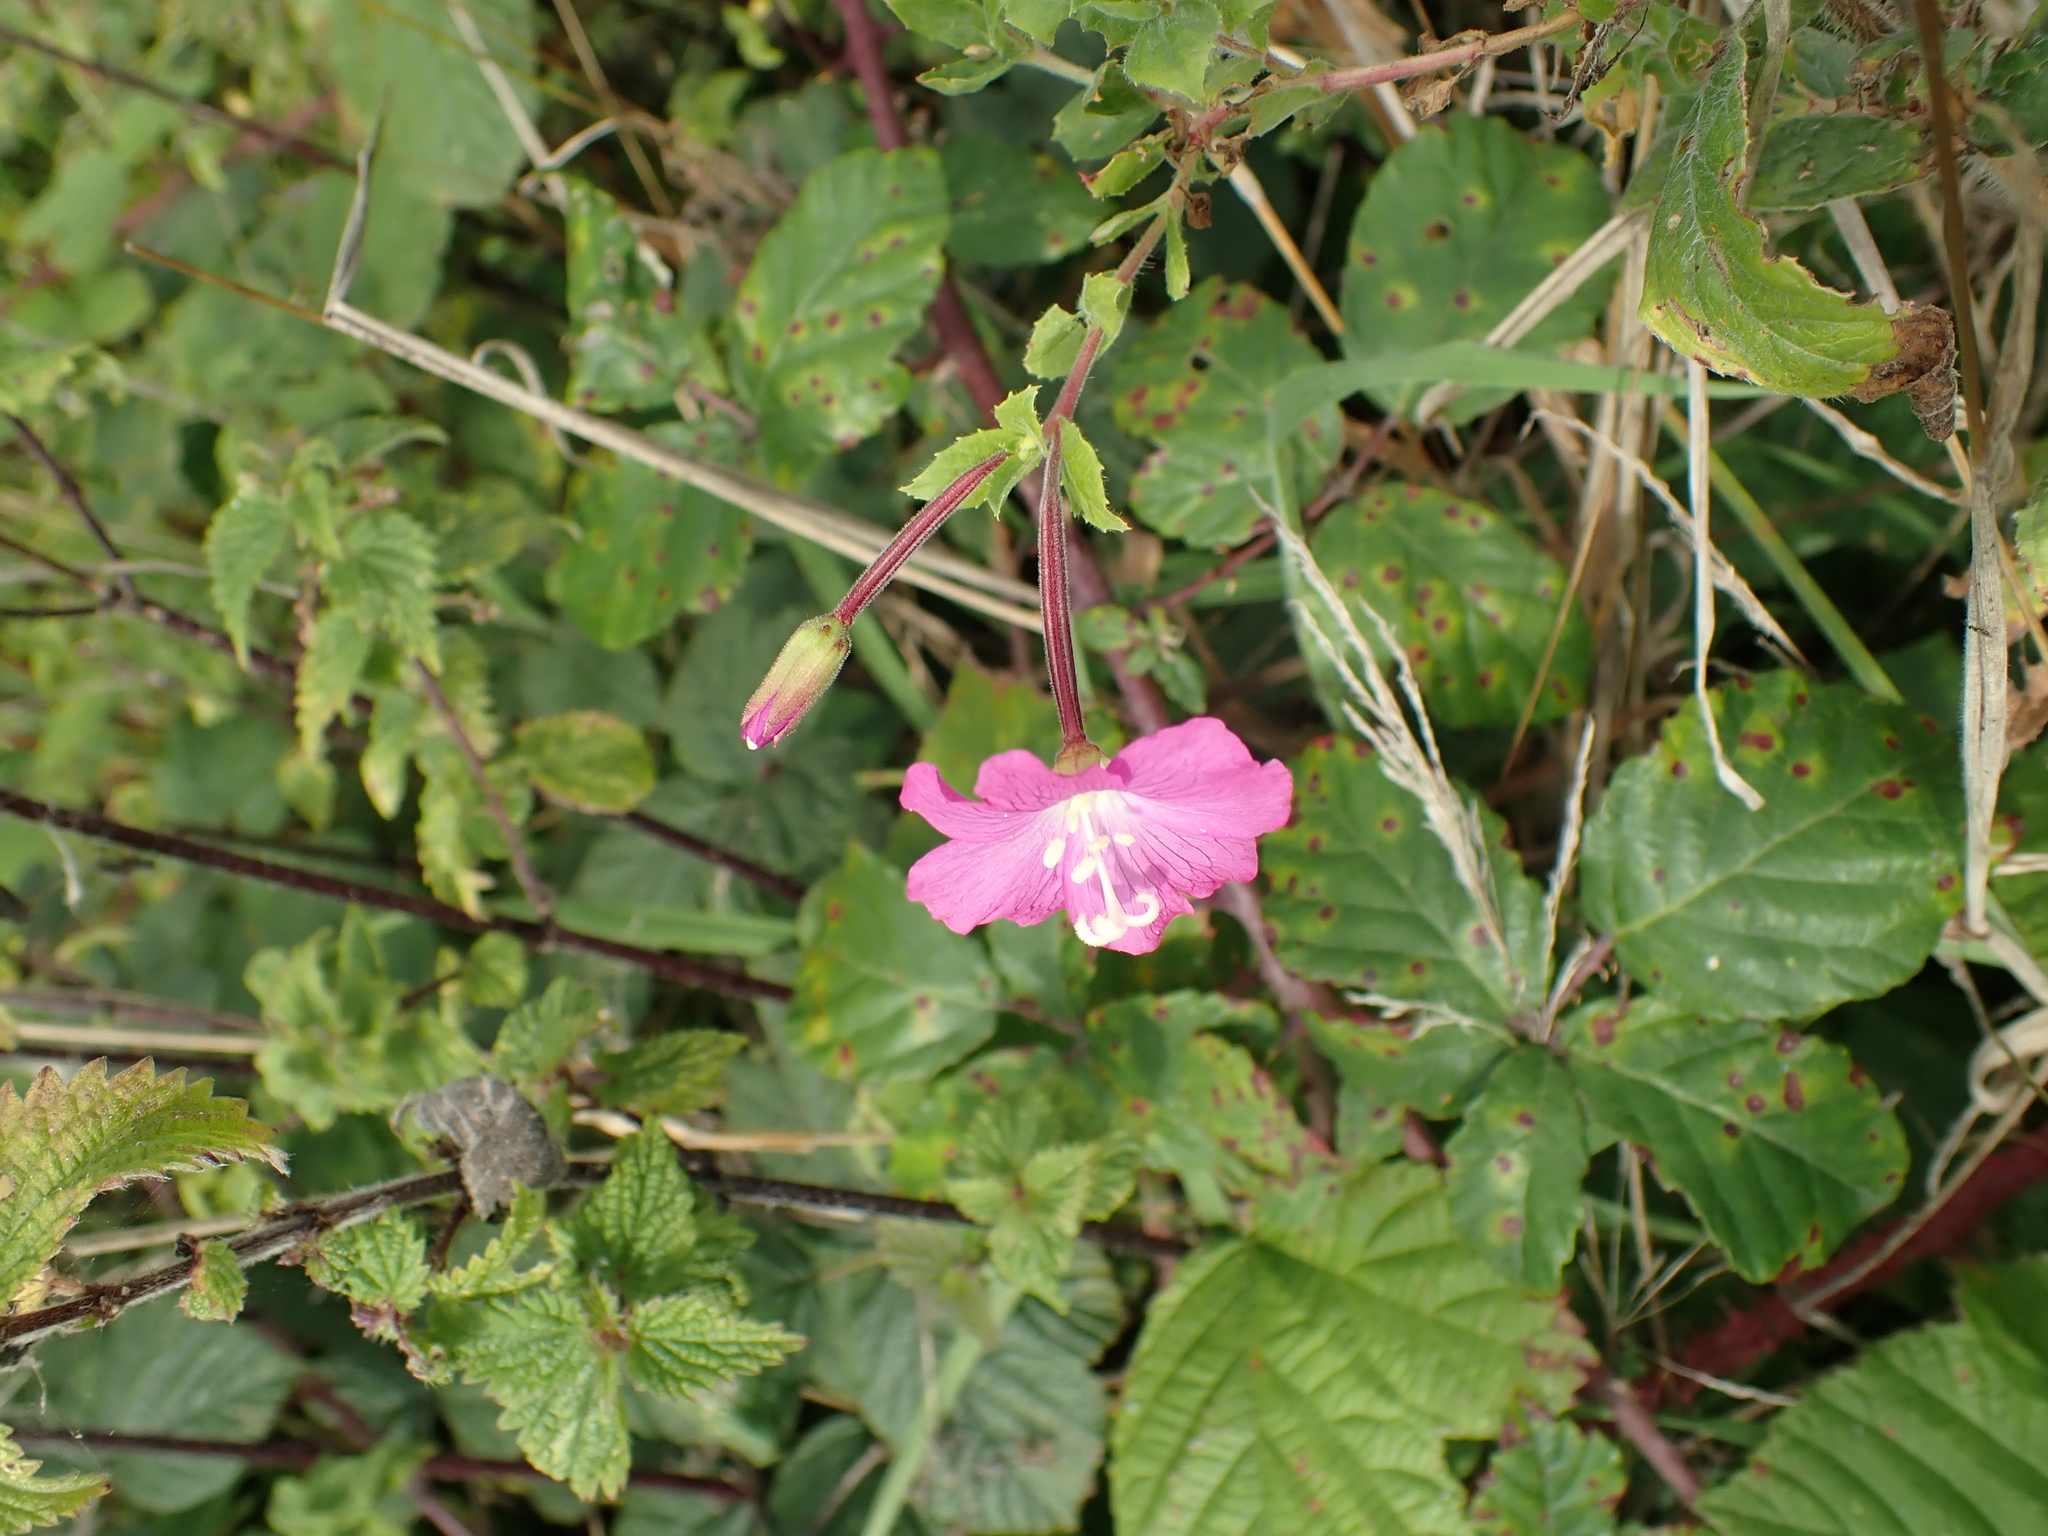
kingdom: Plantae
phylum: Tracheophyta
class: Magnoliopsida
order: Myrtales
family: Onagraceae
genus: Epilobium
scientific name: Epilobium hirsutum
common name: Great willowherb
